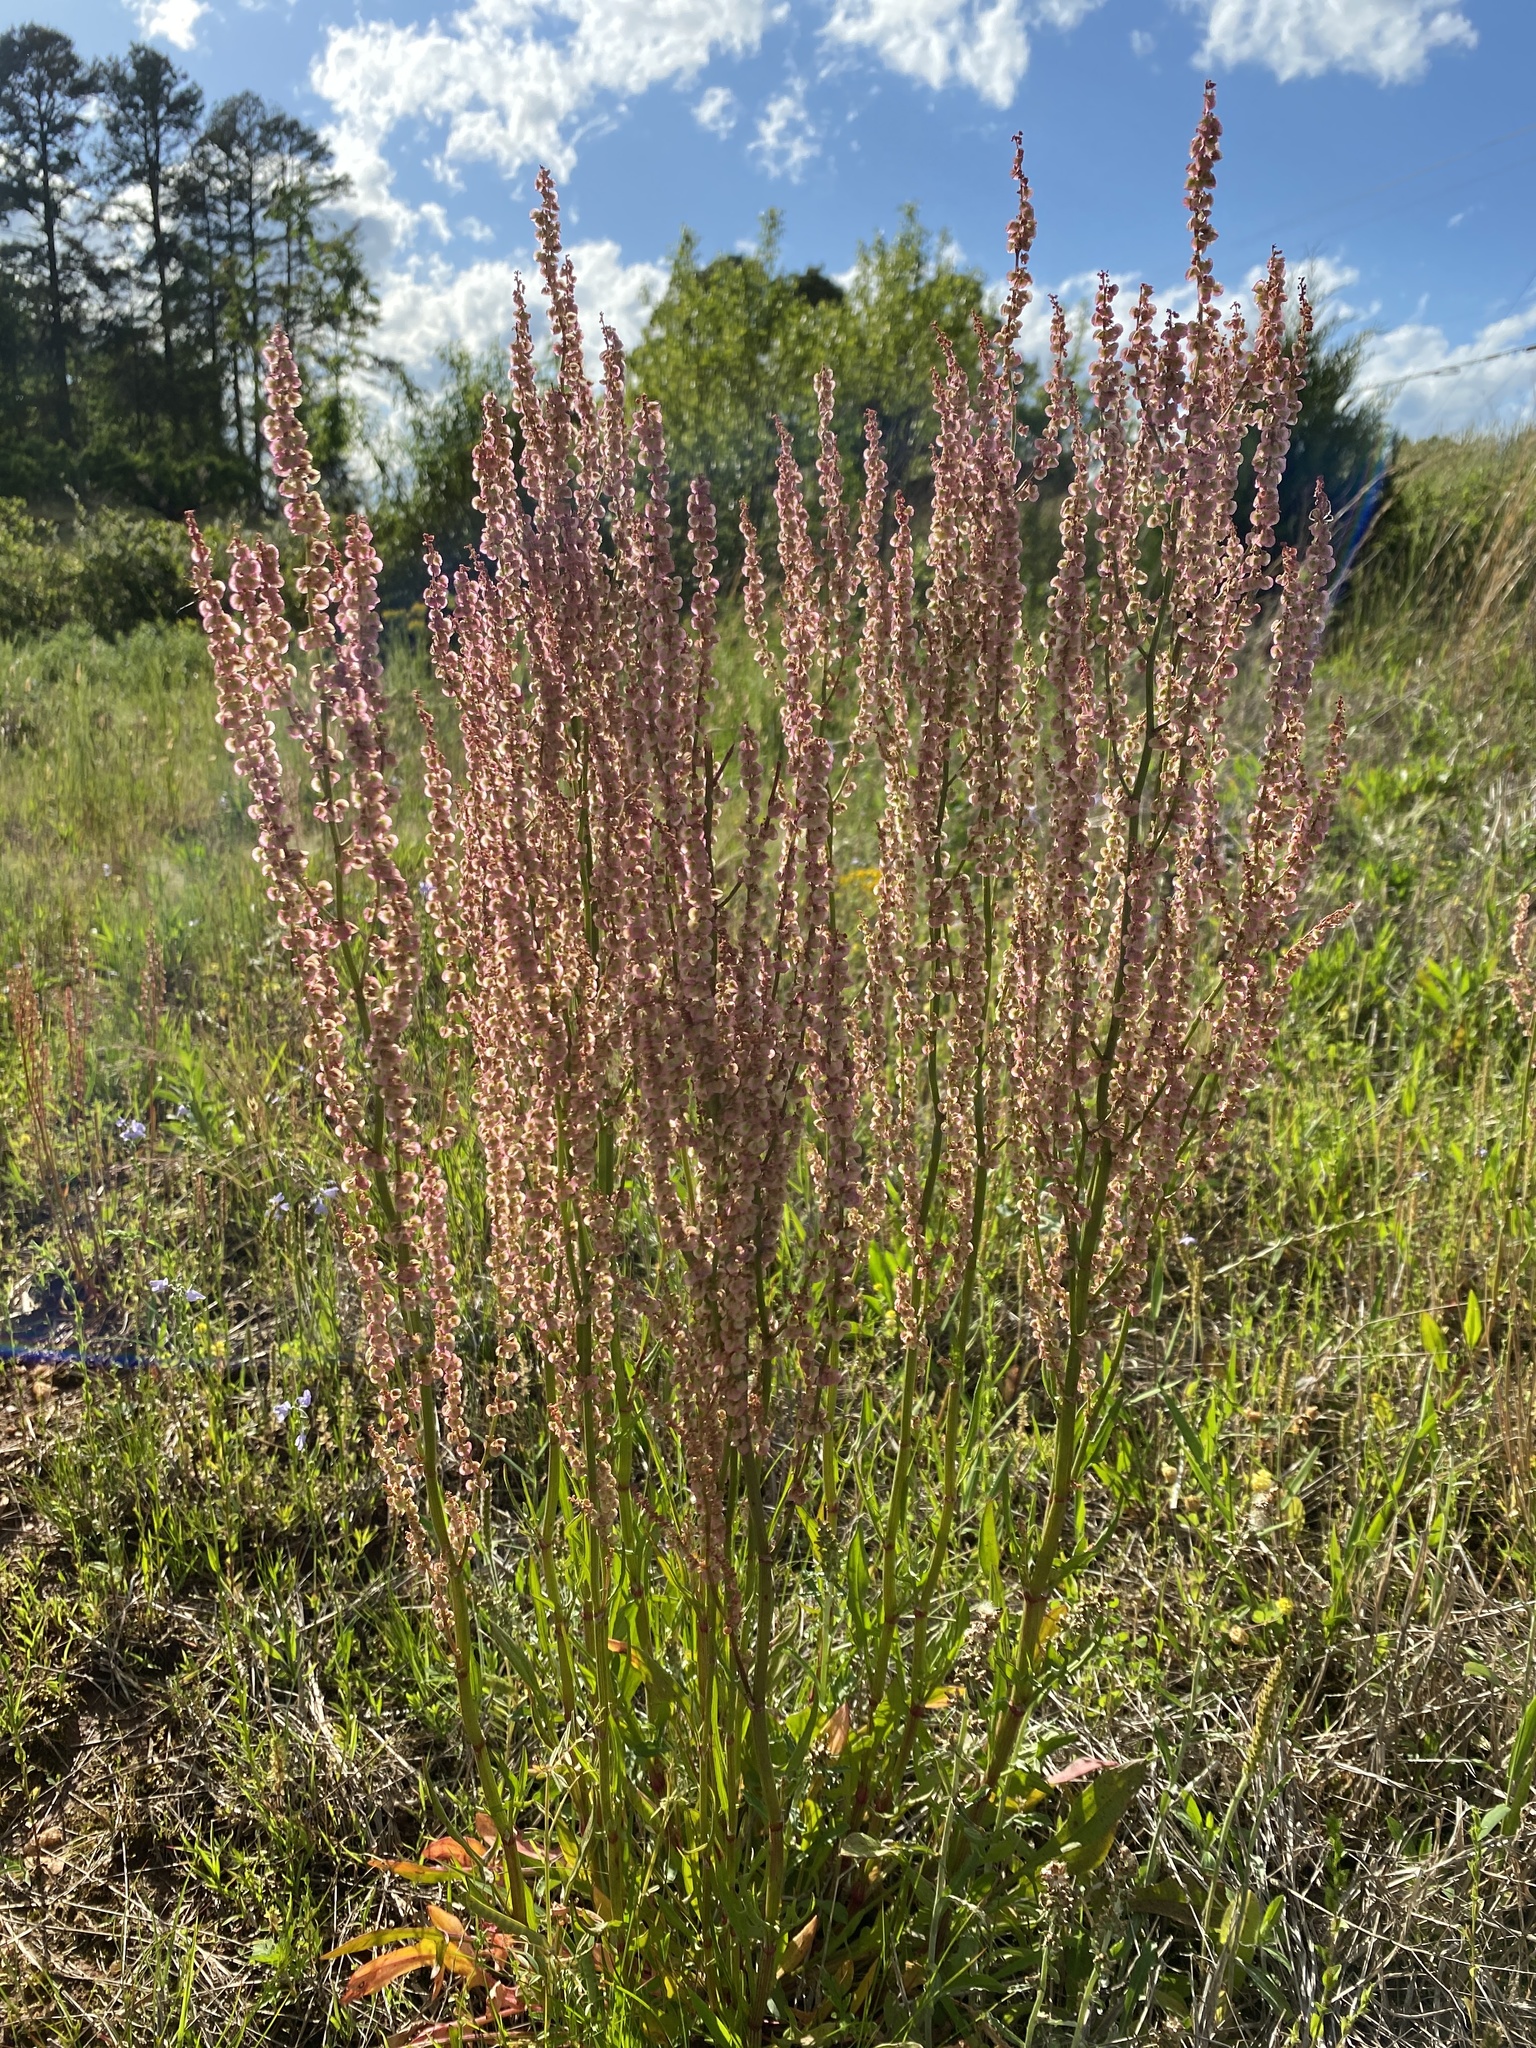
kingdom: Plantae
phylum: Tracheophyta
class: Magnoliopsida
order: Caryophyllales
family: Polygonaceae
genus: Rumex
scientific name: Rumex hastatulus
